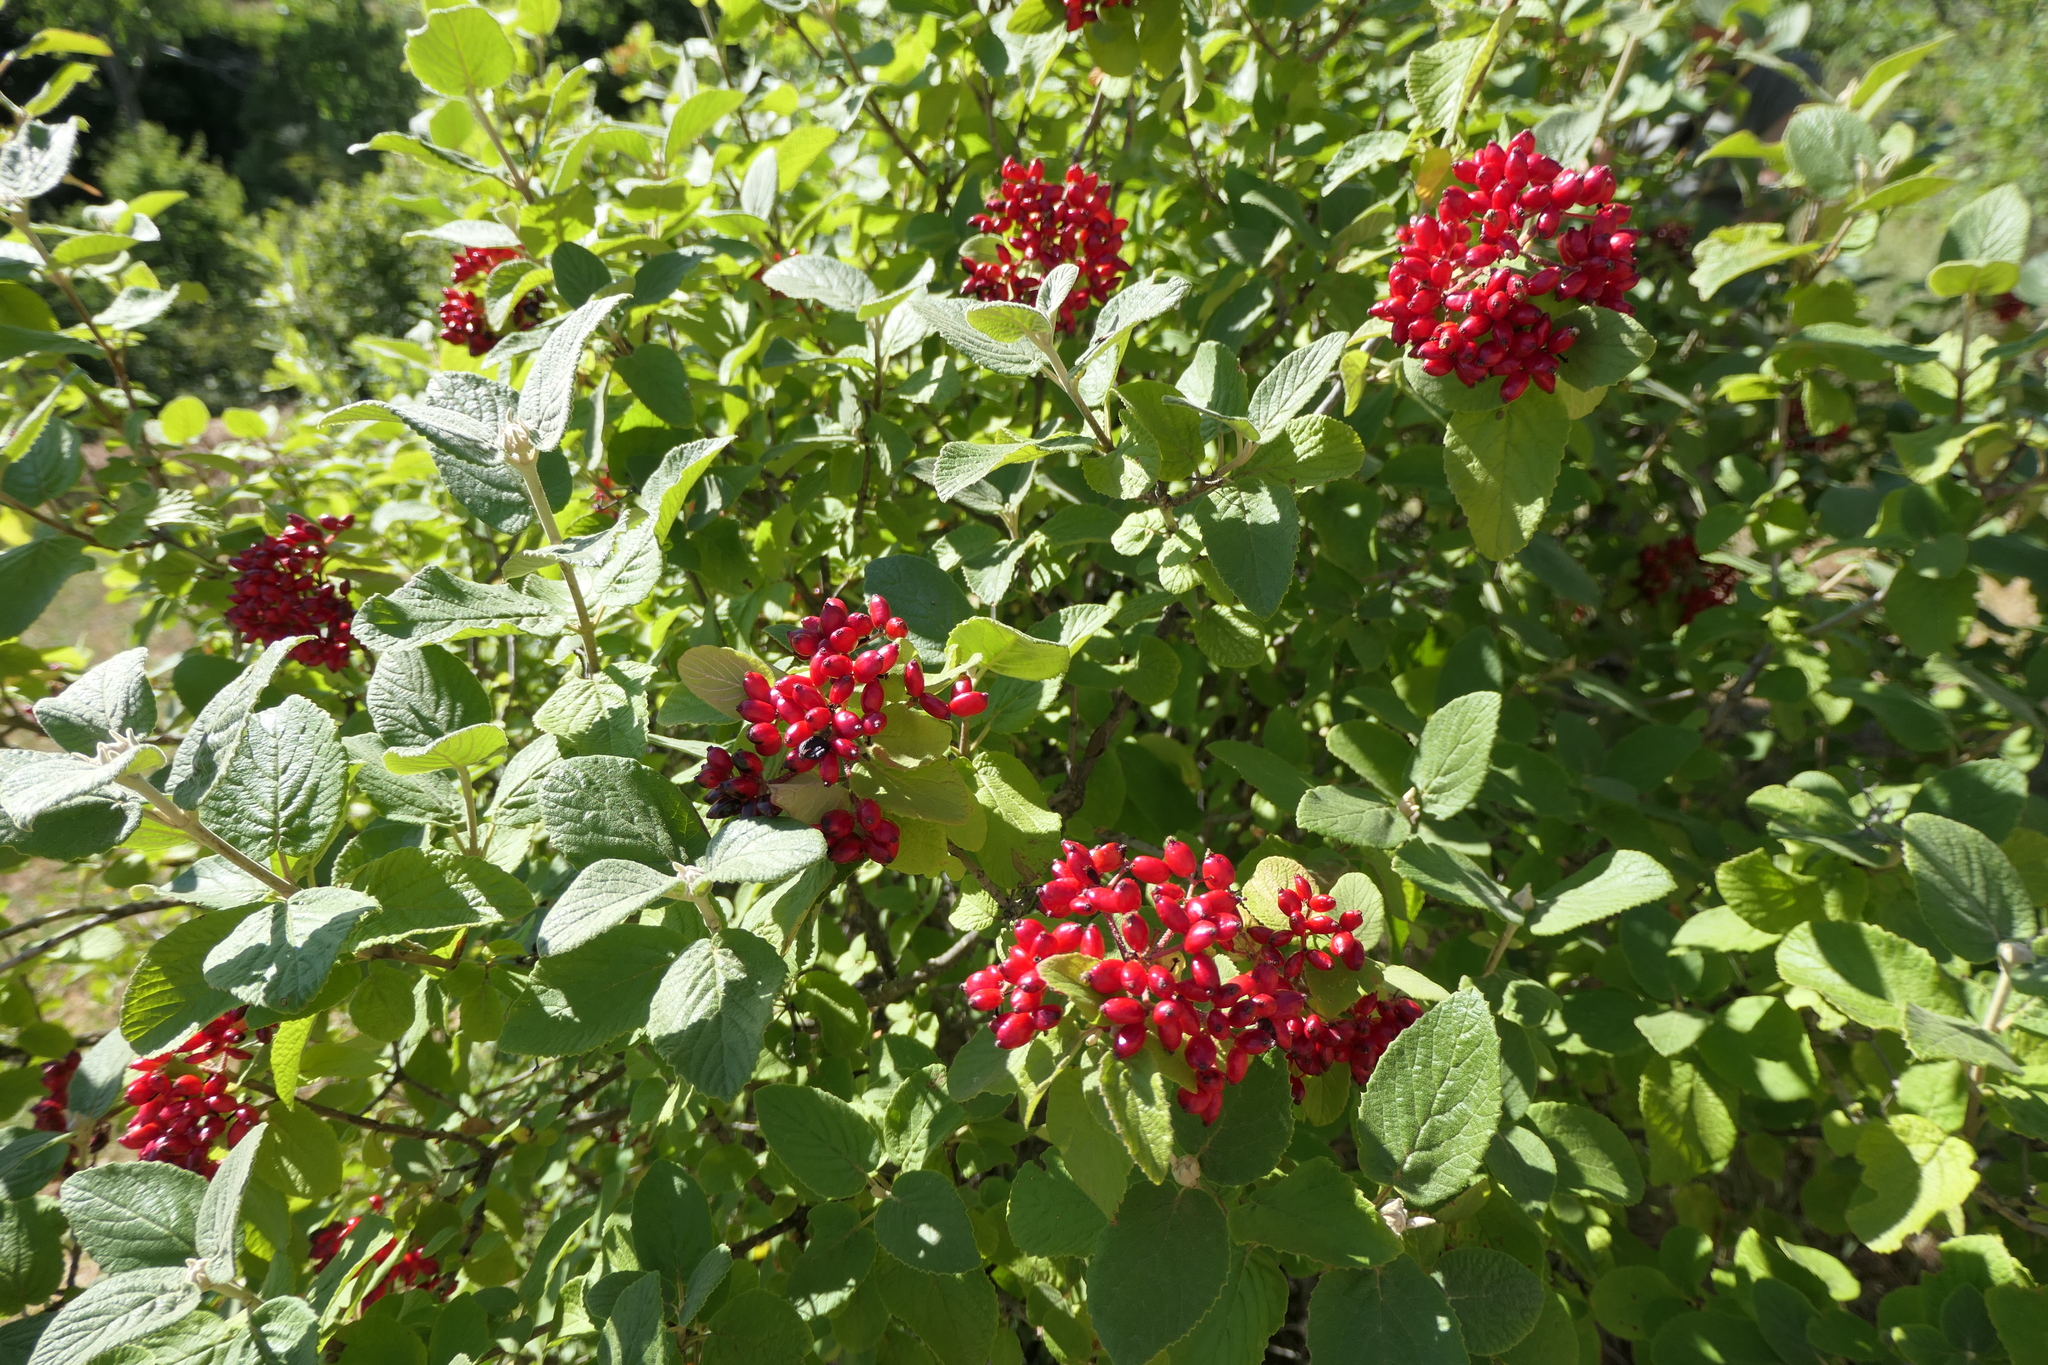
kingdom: Plantae
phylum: Tracheophyta
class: Magnoliopsida
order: Dipsacales
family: Viburnaceae
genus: Viburnum
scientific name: Viburnum lantana
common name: Wayfaring tree
